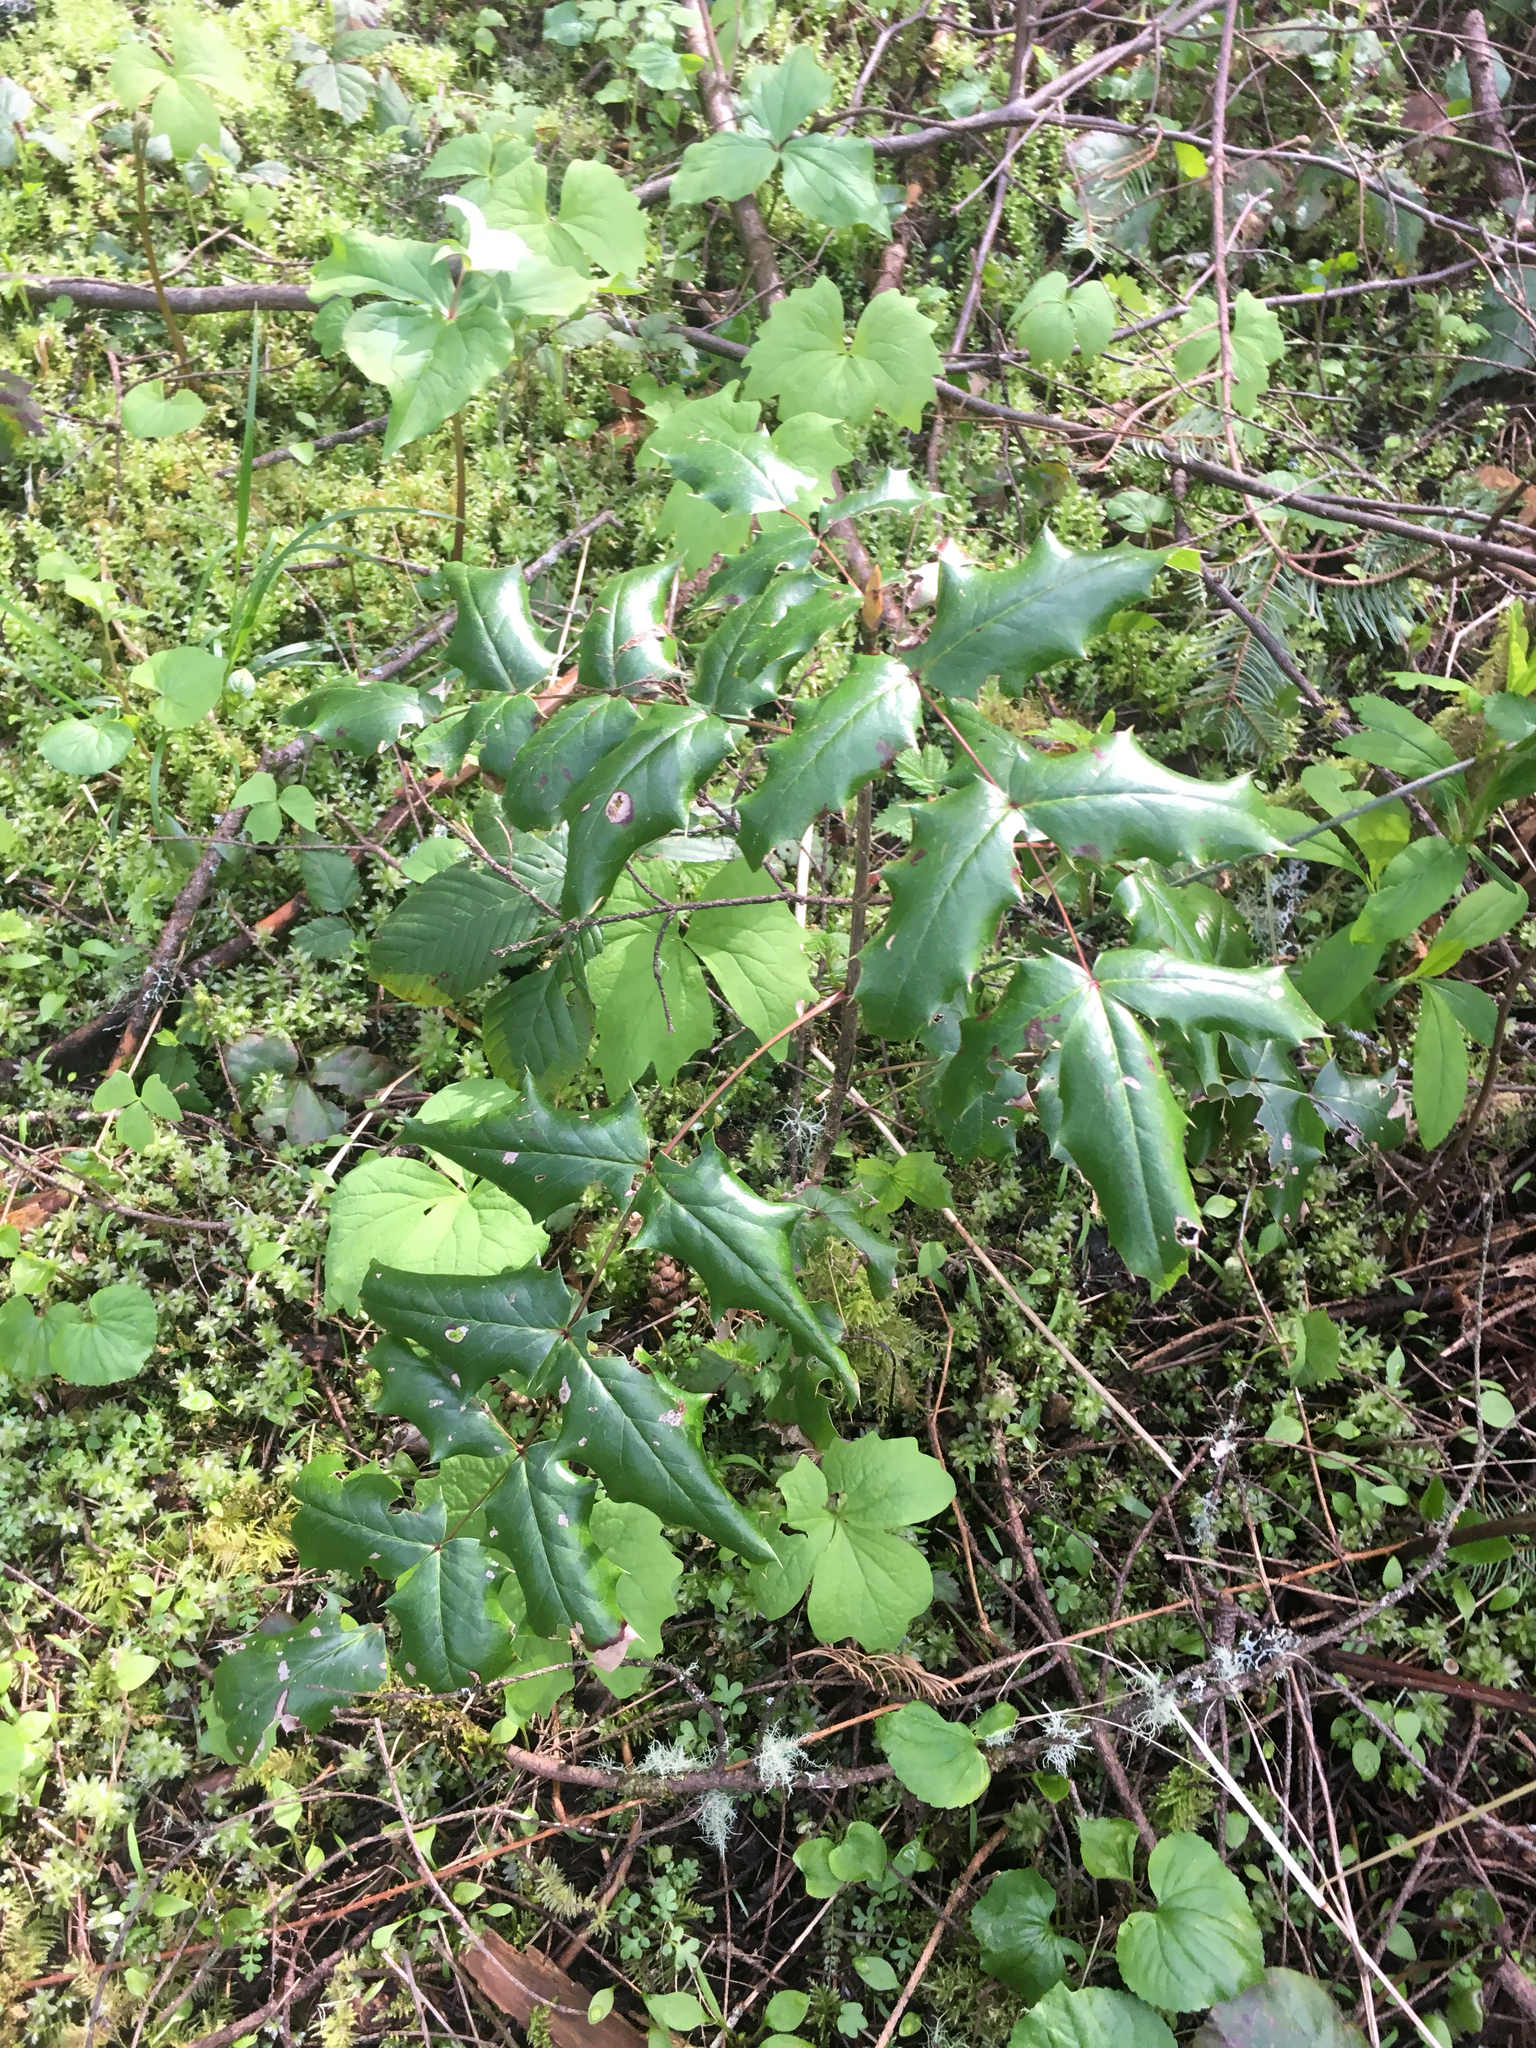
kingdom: Plantae
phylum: Tracheophyta
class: Magnoliopsida
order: Ranunculales
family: Berberidaceae
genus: Mahonia
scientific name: Mahonia aquifolium
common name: Oregon-grape
